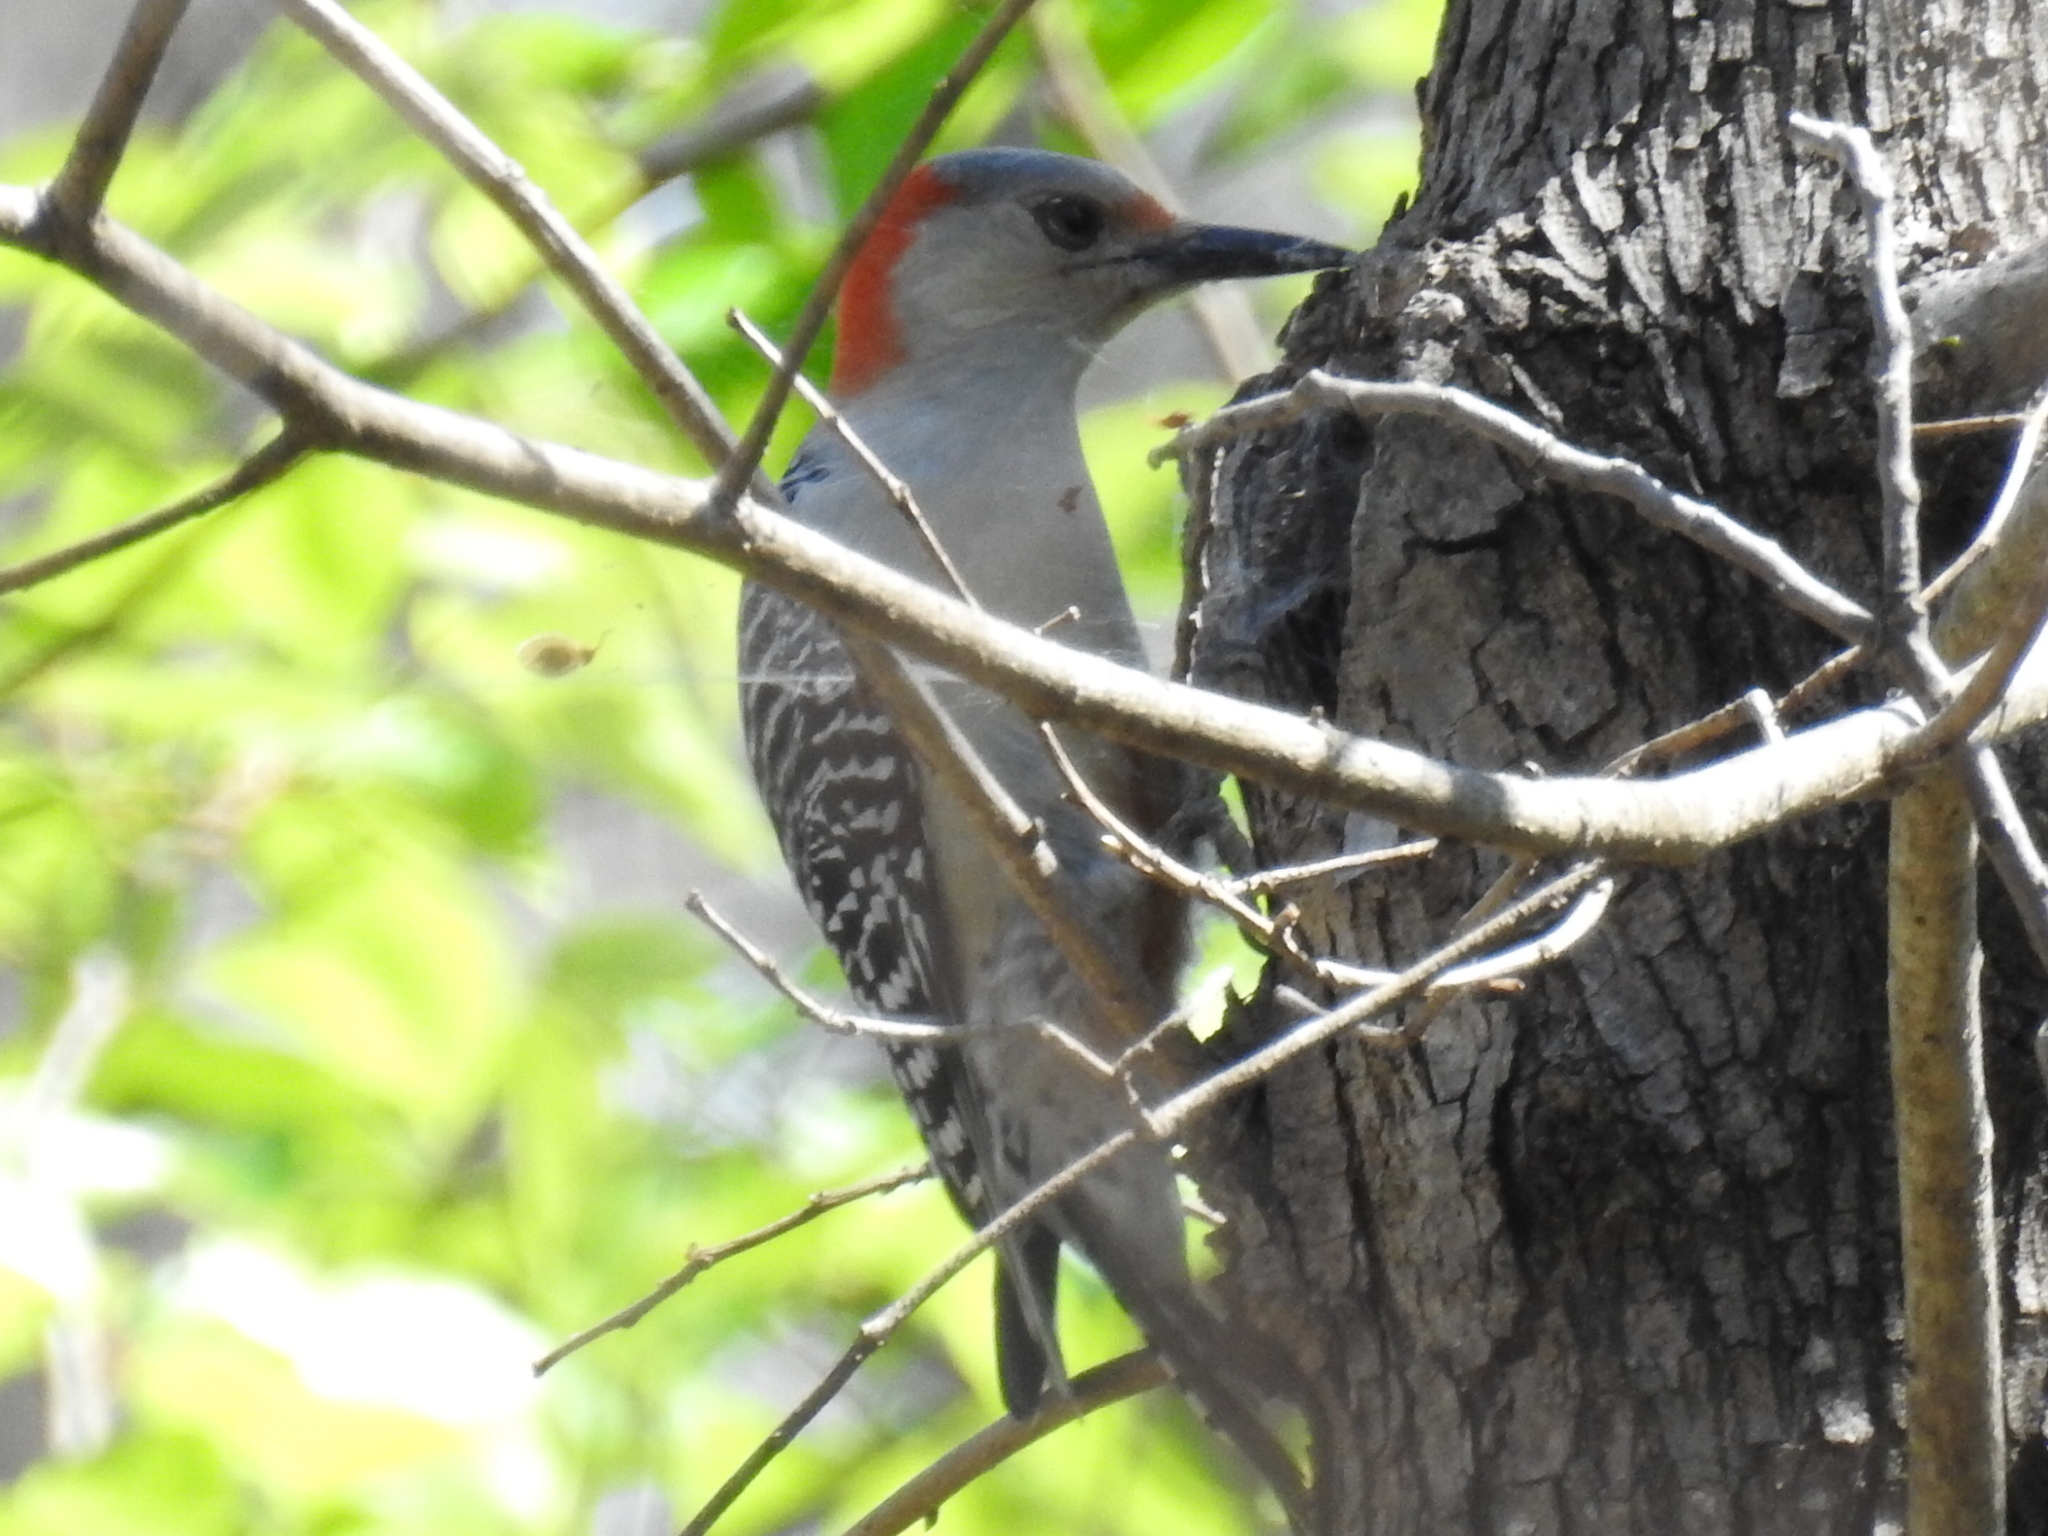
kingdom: Animalia
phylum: Chordata
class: Aves
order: Piciformes
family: Picidae
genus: Melanerpes
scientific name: Melanerpes carolinus
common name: Red-bellied woodpecker
